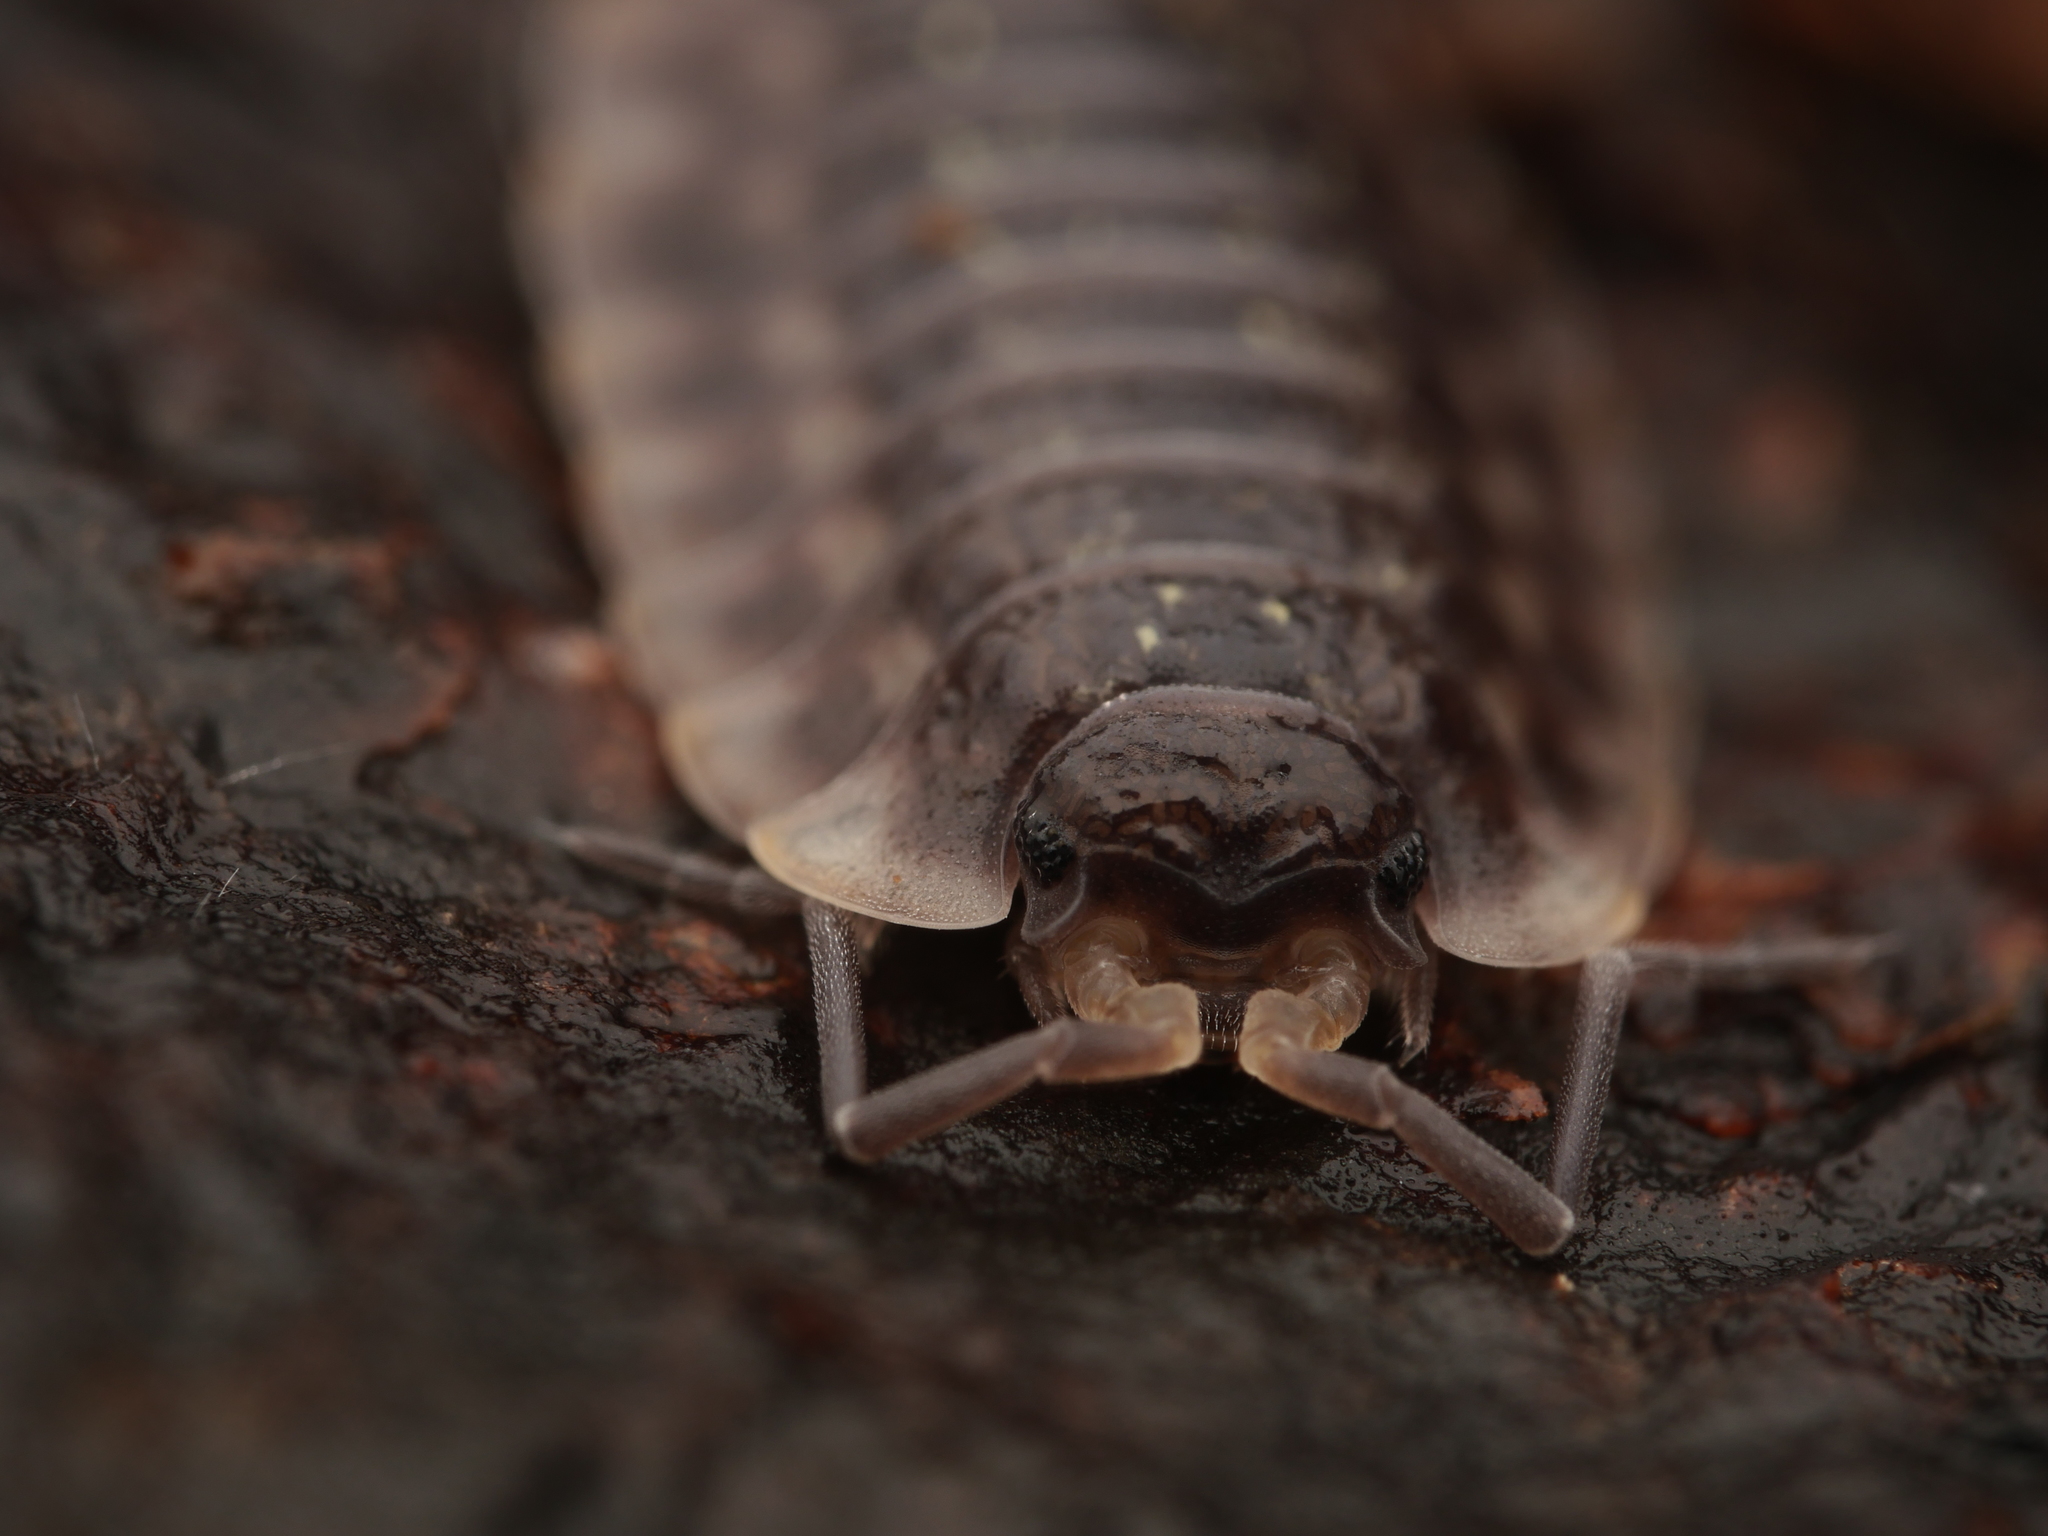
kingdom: Animalia
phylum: Arthropoda
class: Malacostraca
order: Isopoda
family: Oniscidae
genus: Oniscus
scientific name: Oniscus asellus
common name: Common shiny woodlouse
